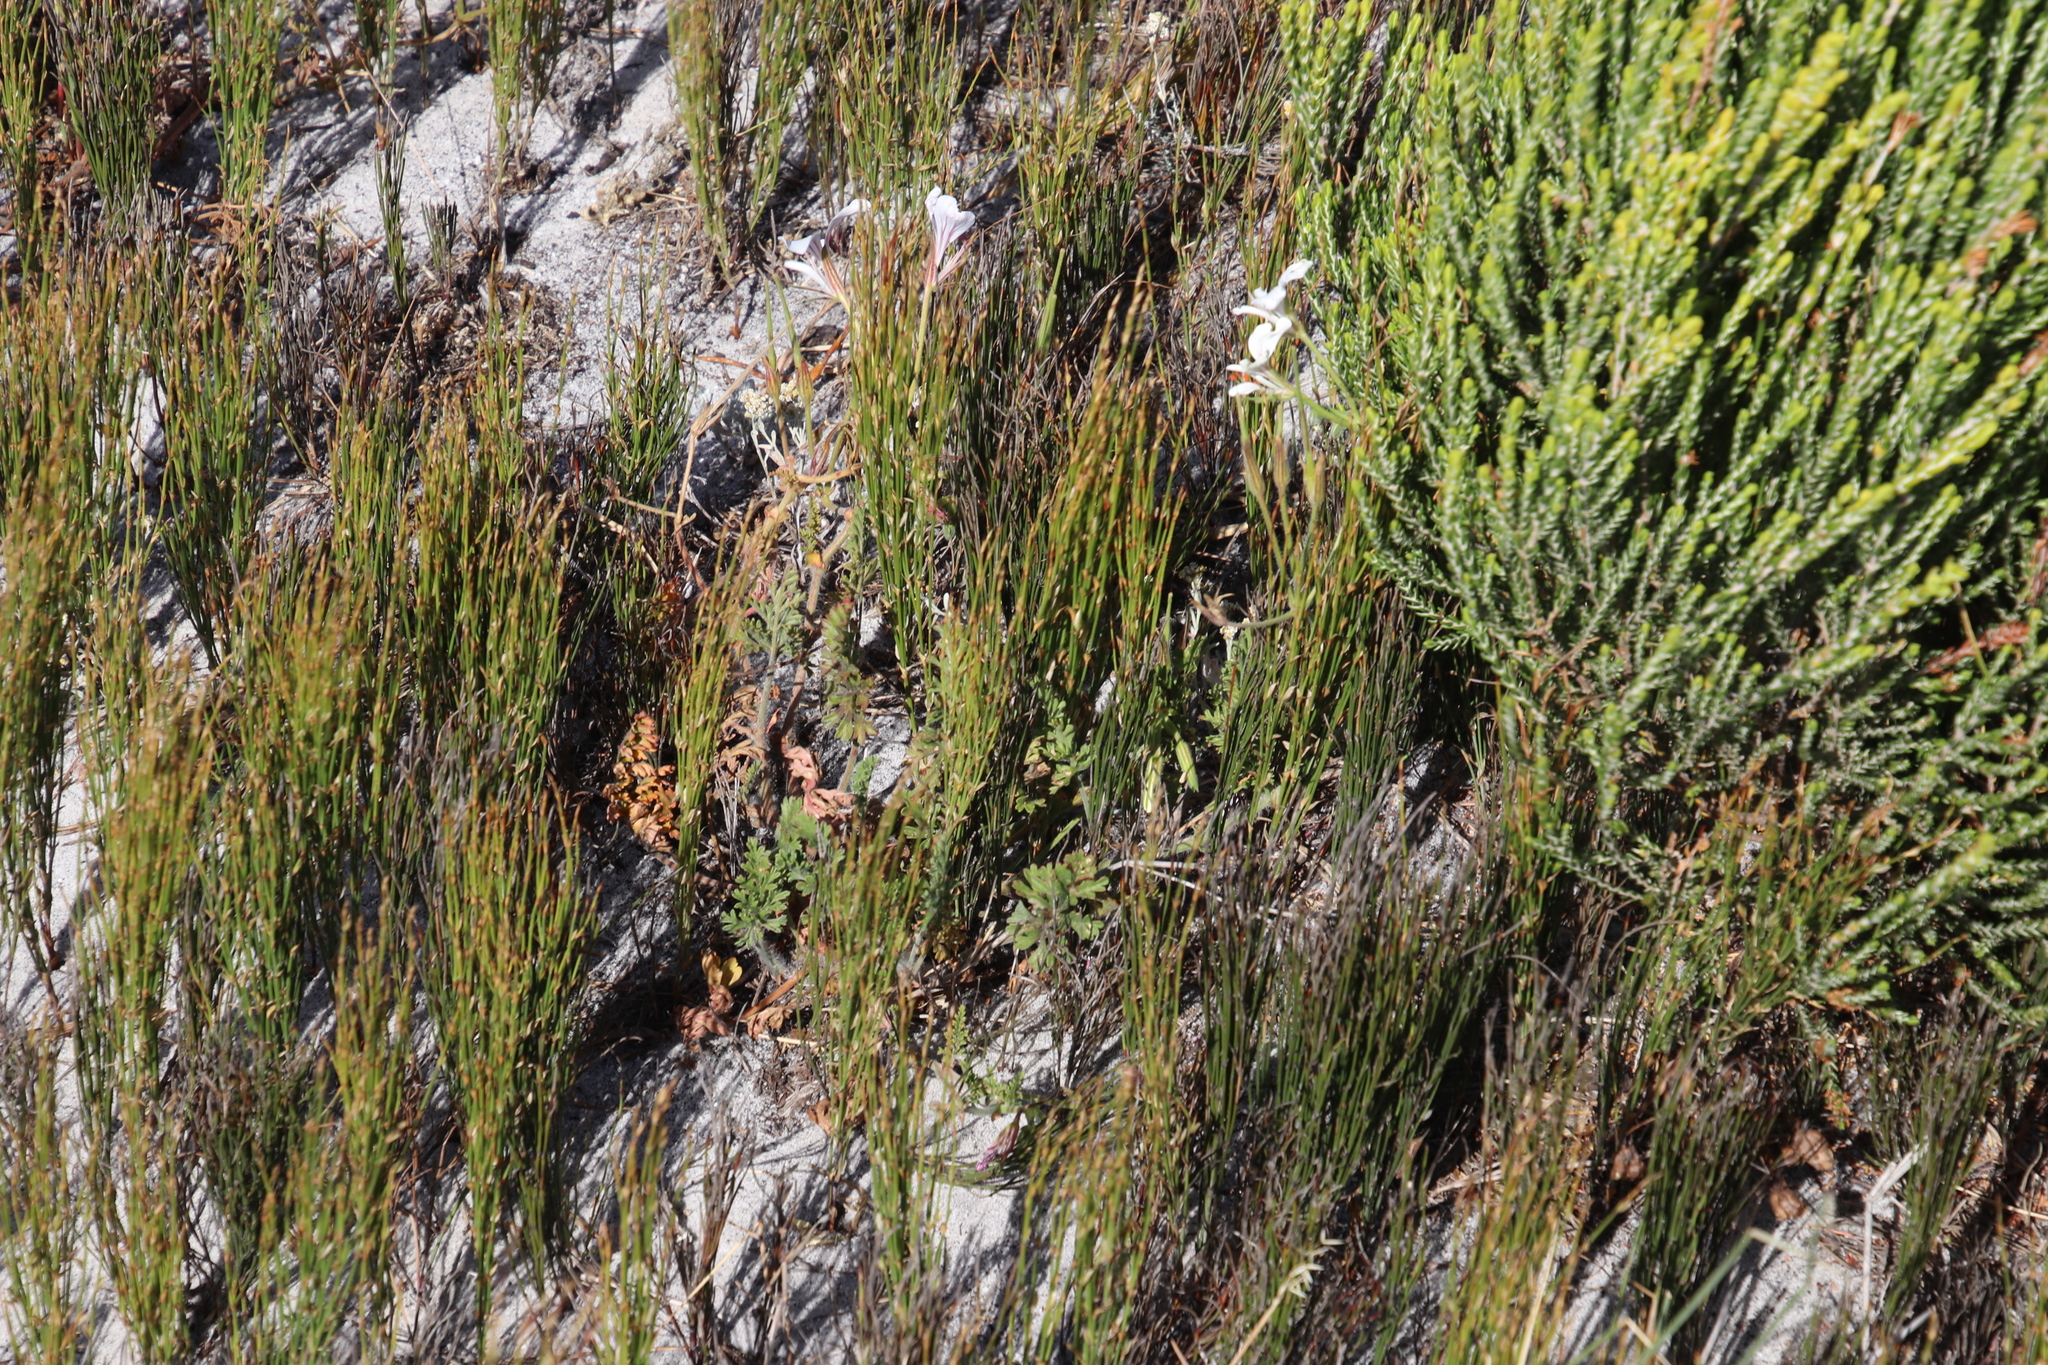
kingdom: Plantae
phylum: Tracheophyta
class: Magnoliopsida
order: Geraniales
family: Geraniaceae
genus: Pelargonium
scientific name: Pelargonium longicaule
